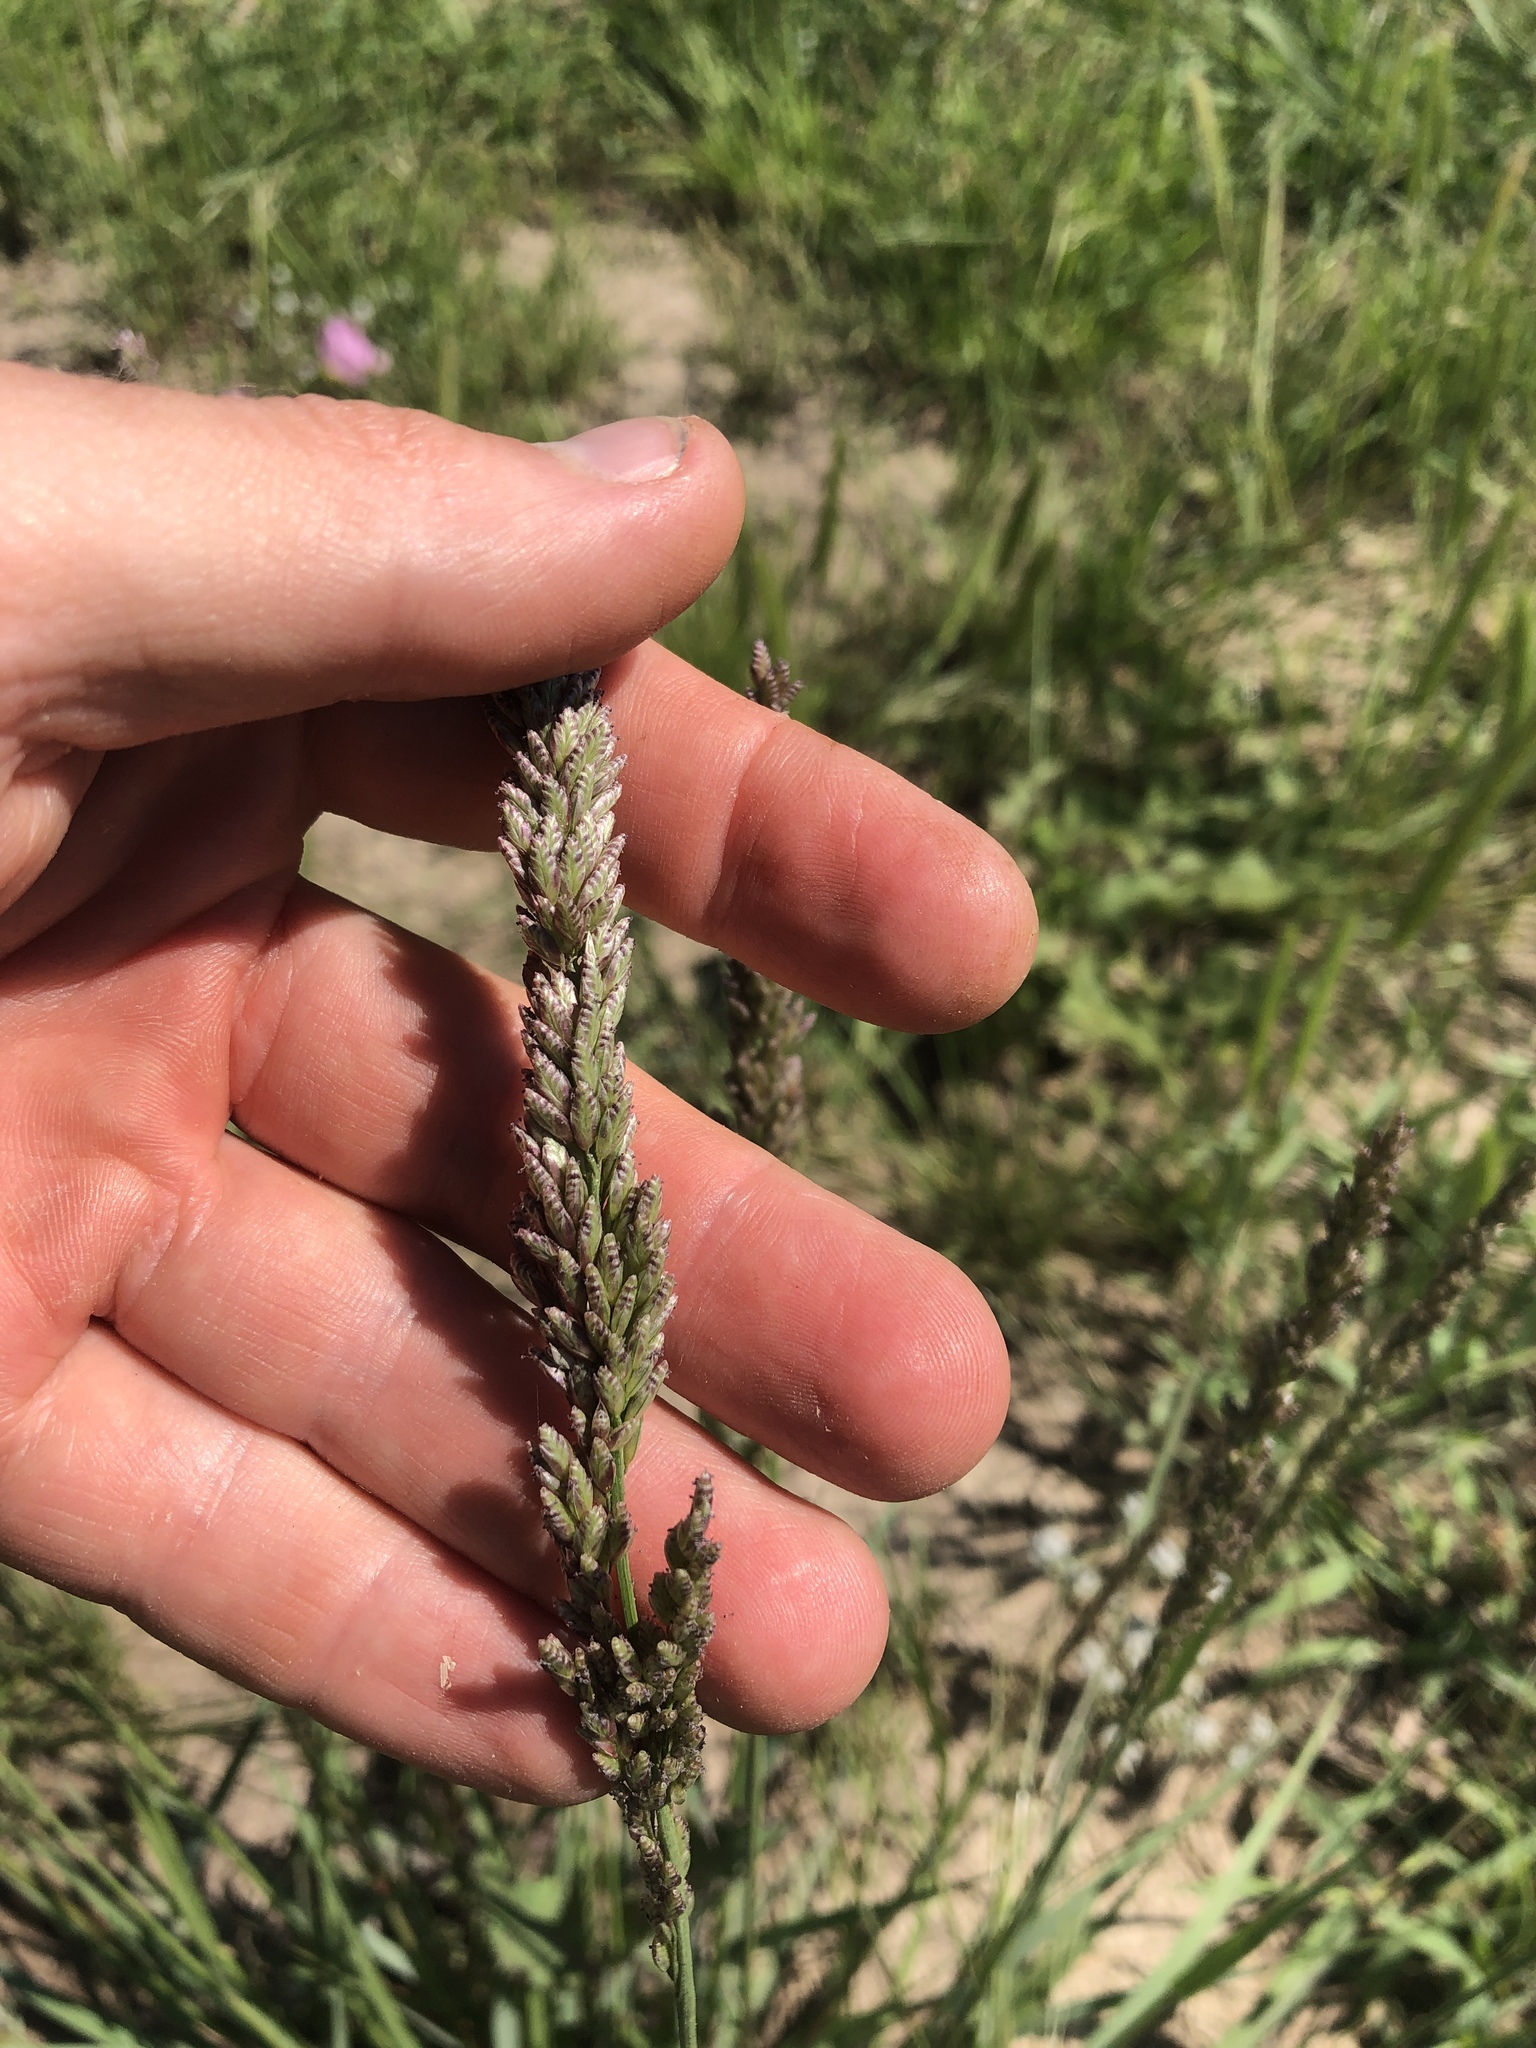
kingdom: Plantae
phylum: Tracheophyta
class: Liliopsida
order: Poales
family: Poaceae
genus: Tridens
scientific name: Tridens albescens
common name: White tridens
